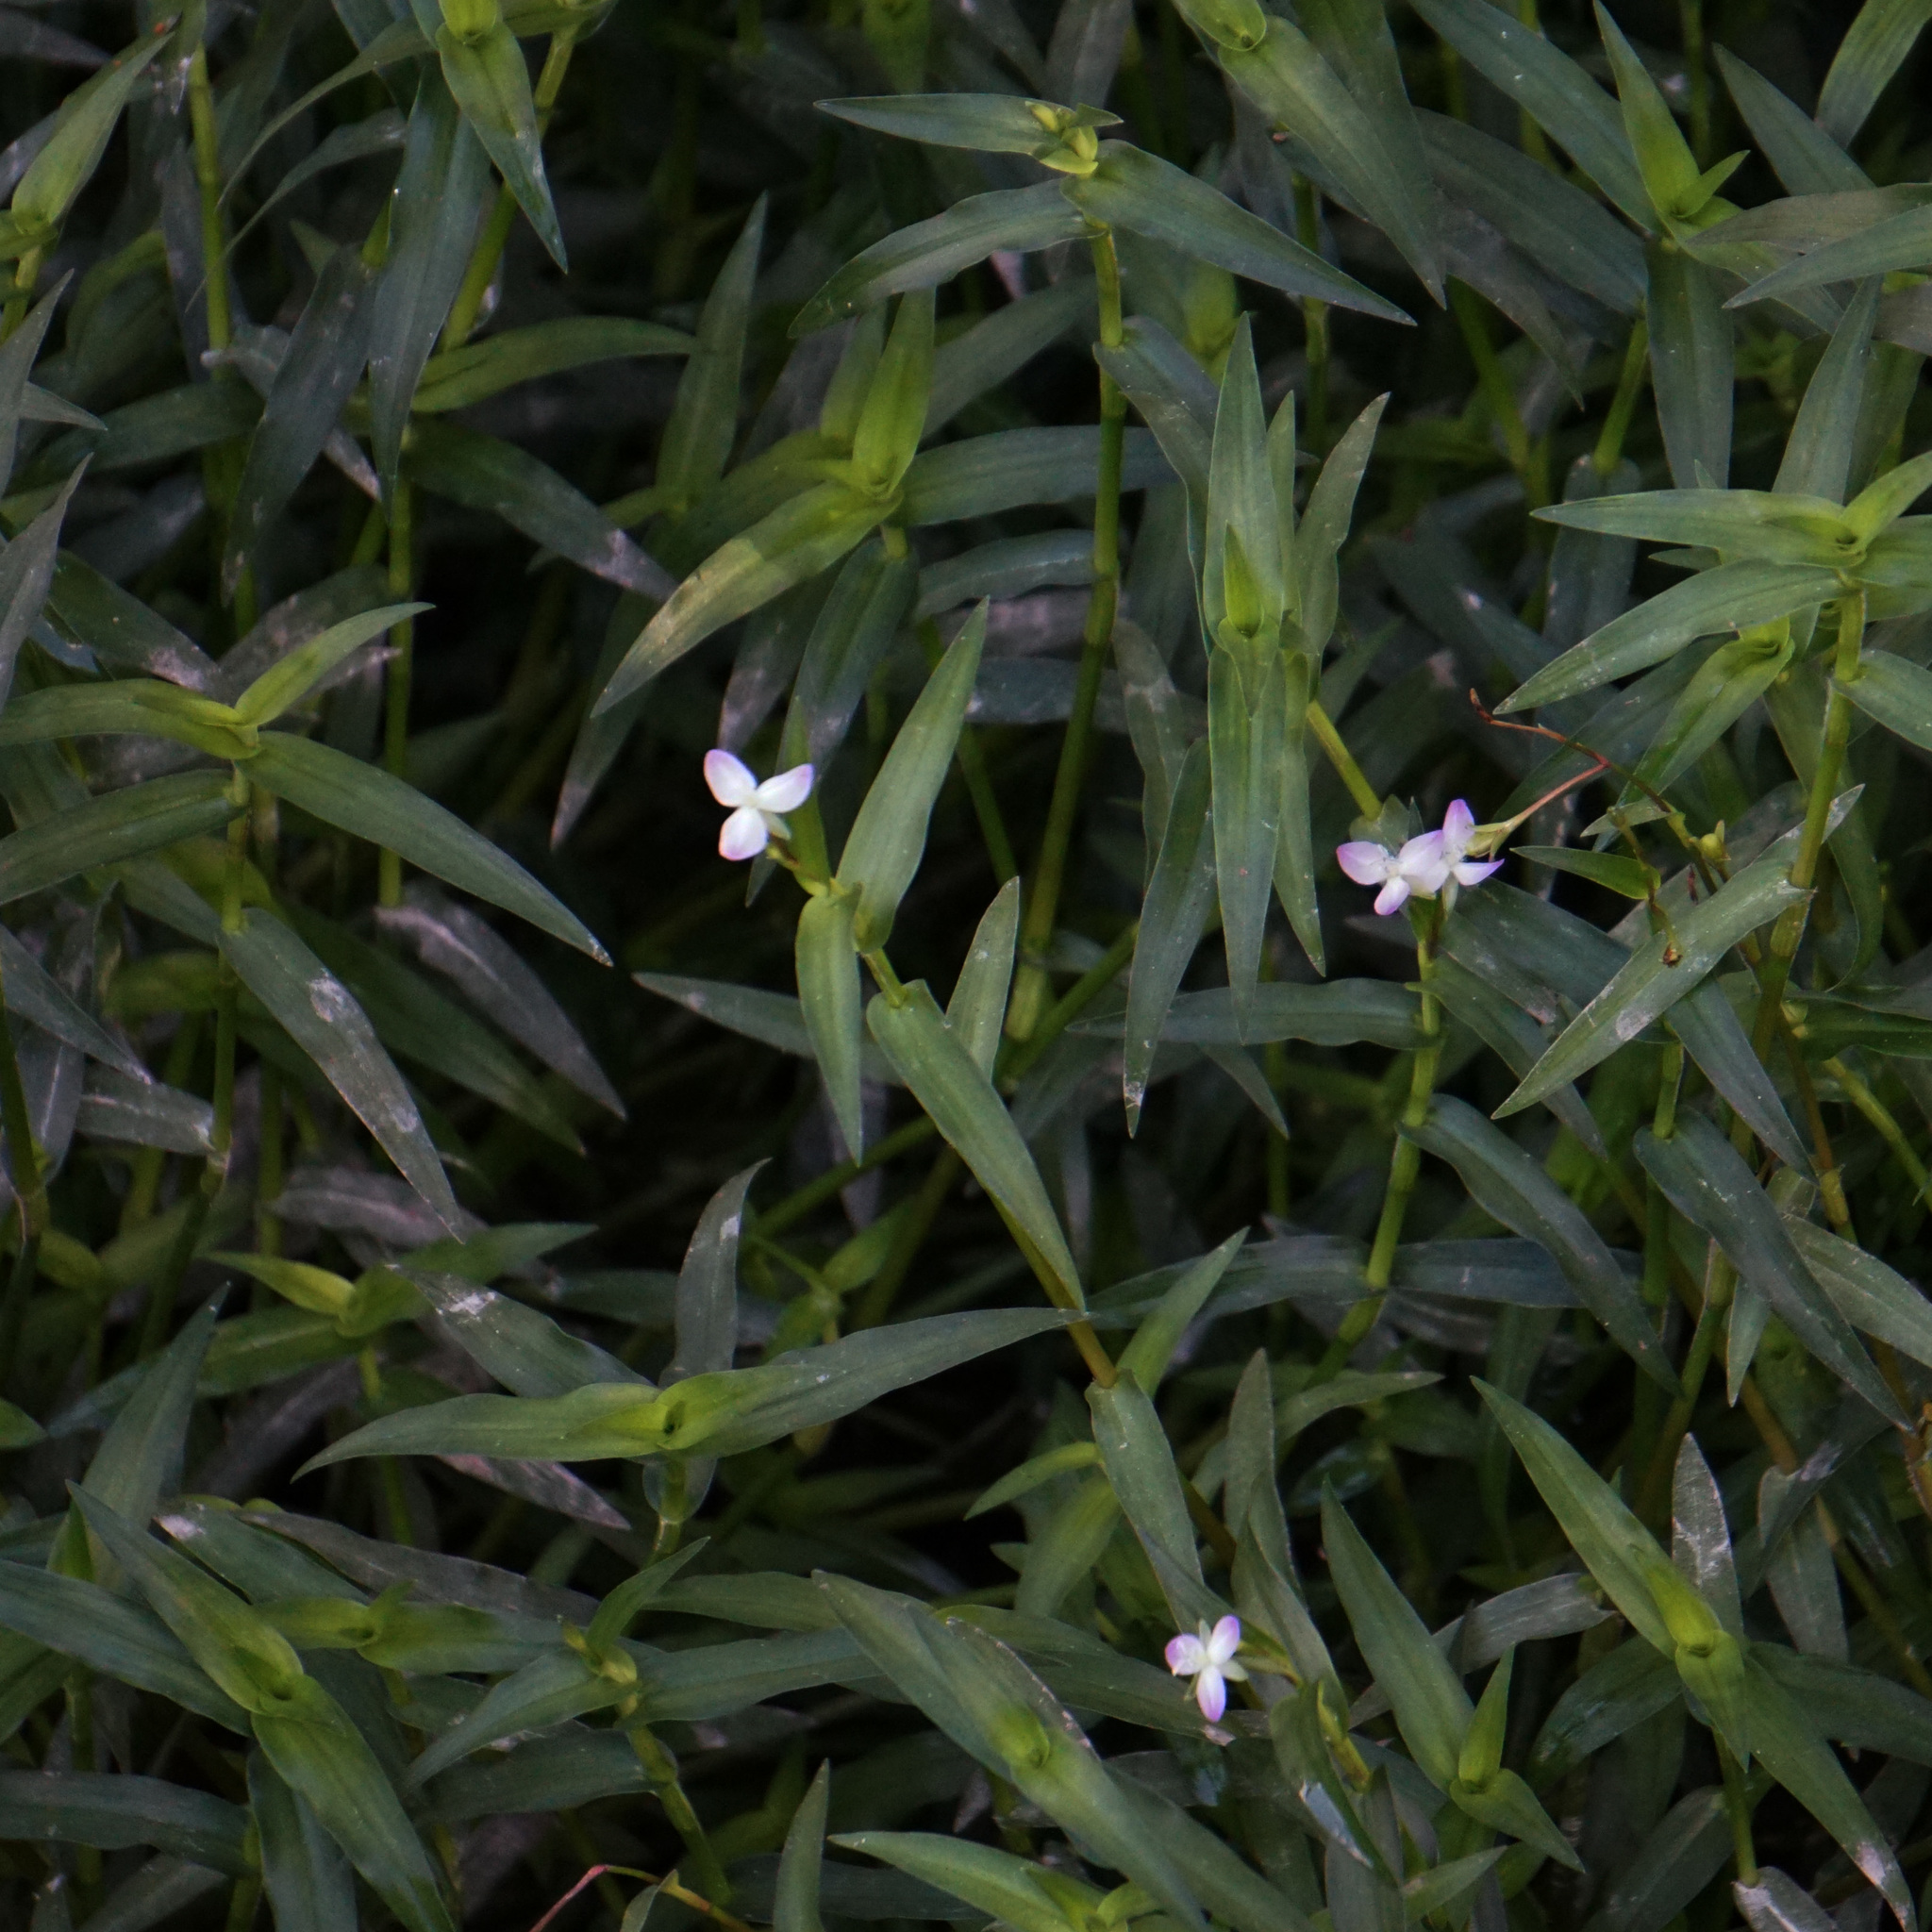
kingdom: Plantae
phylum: Tracheophyta
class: Liliopsida
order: Commelinales
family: Commelinaceae
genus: Murdannia
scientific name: Murdannia keisak
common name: Wartremoving herb
